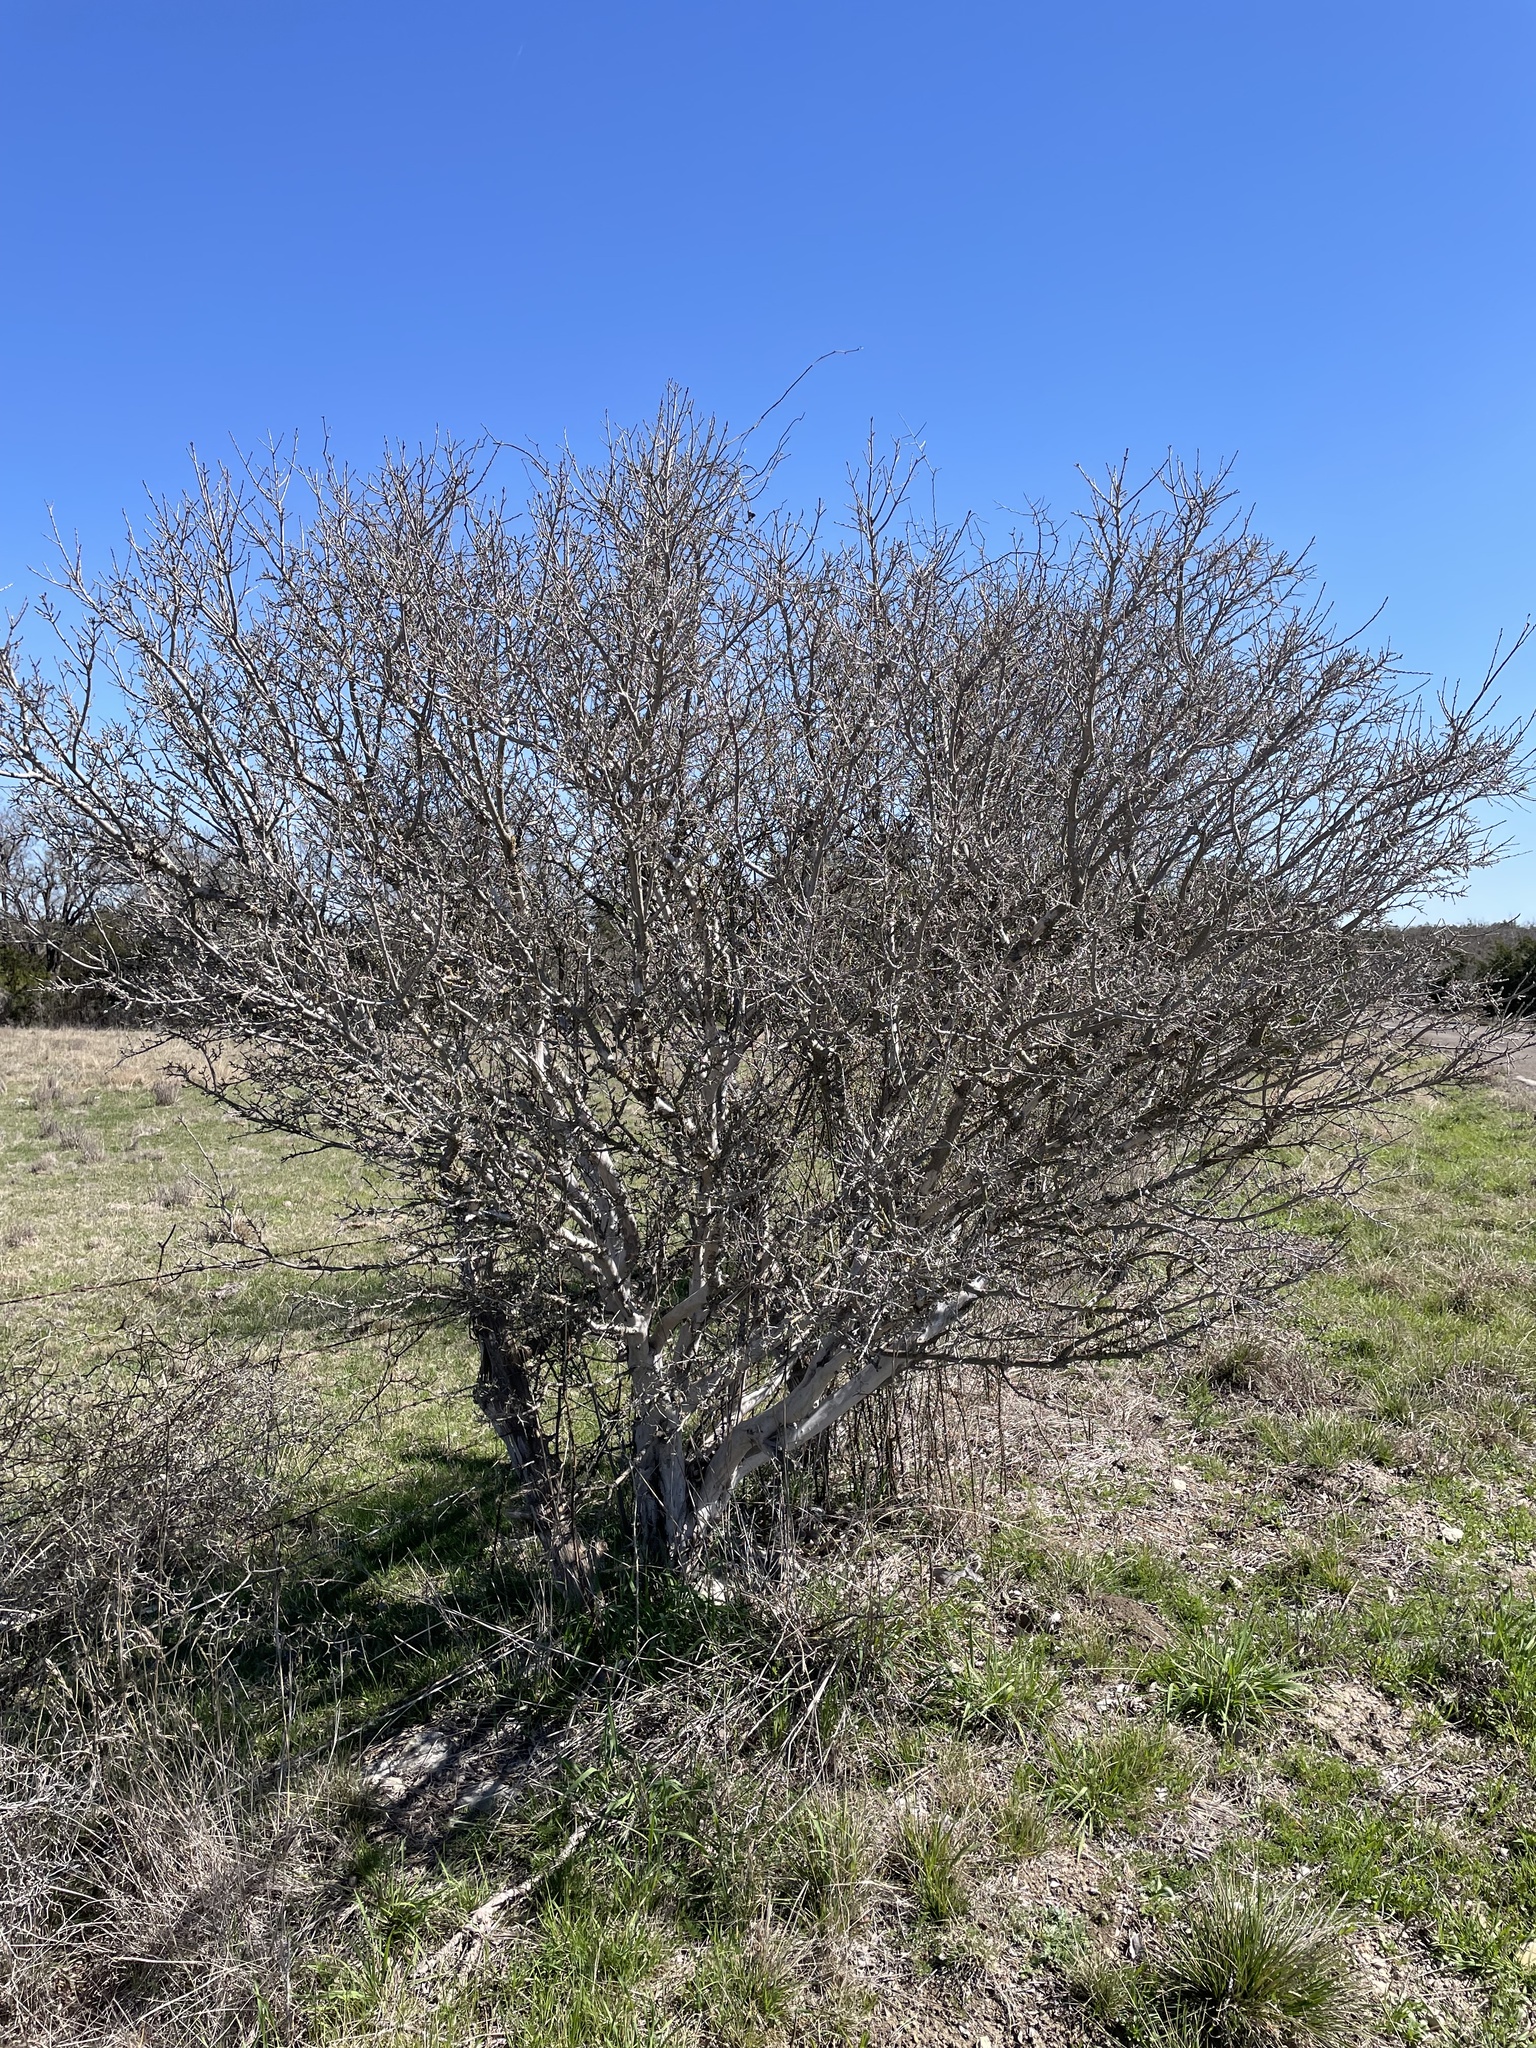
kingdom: Plantae
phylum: Tracheophyta
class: Magnoliopsida
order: Ericales
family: Ebenaceae
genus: Diospyros
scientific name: Diospyros texana
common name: Texas persimmon
